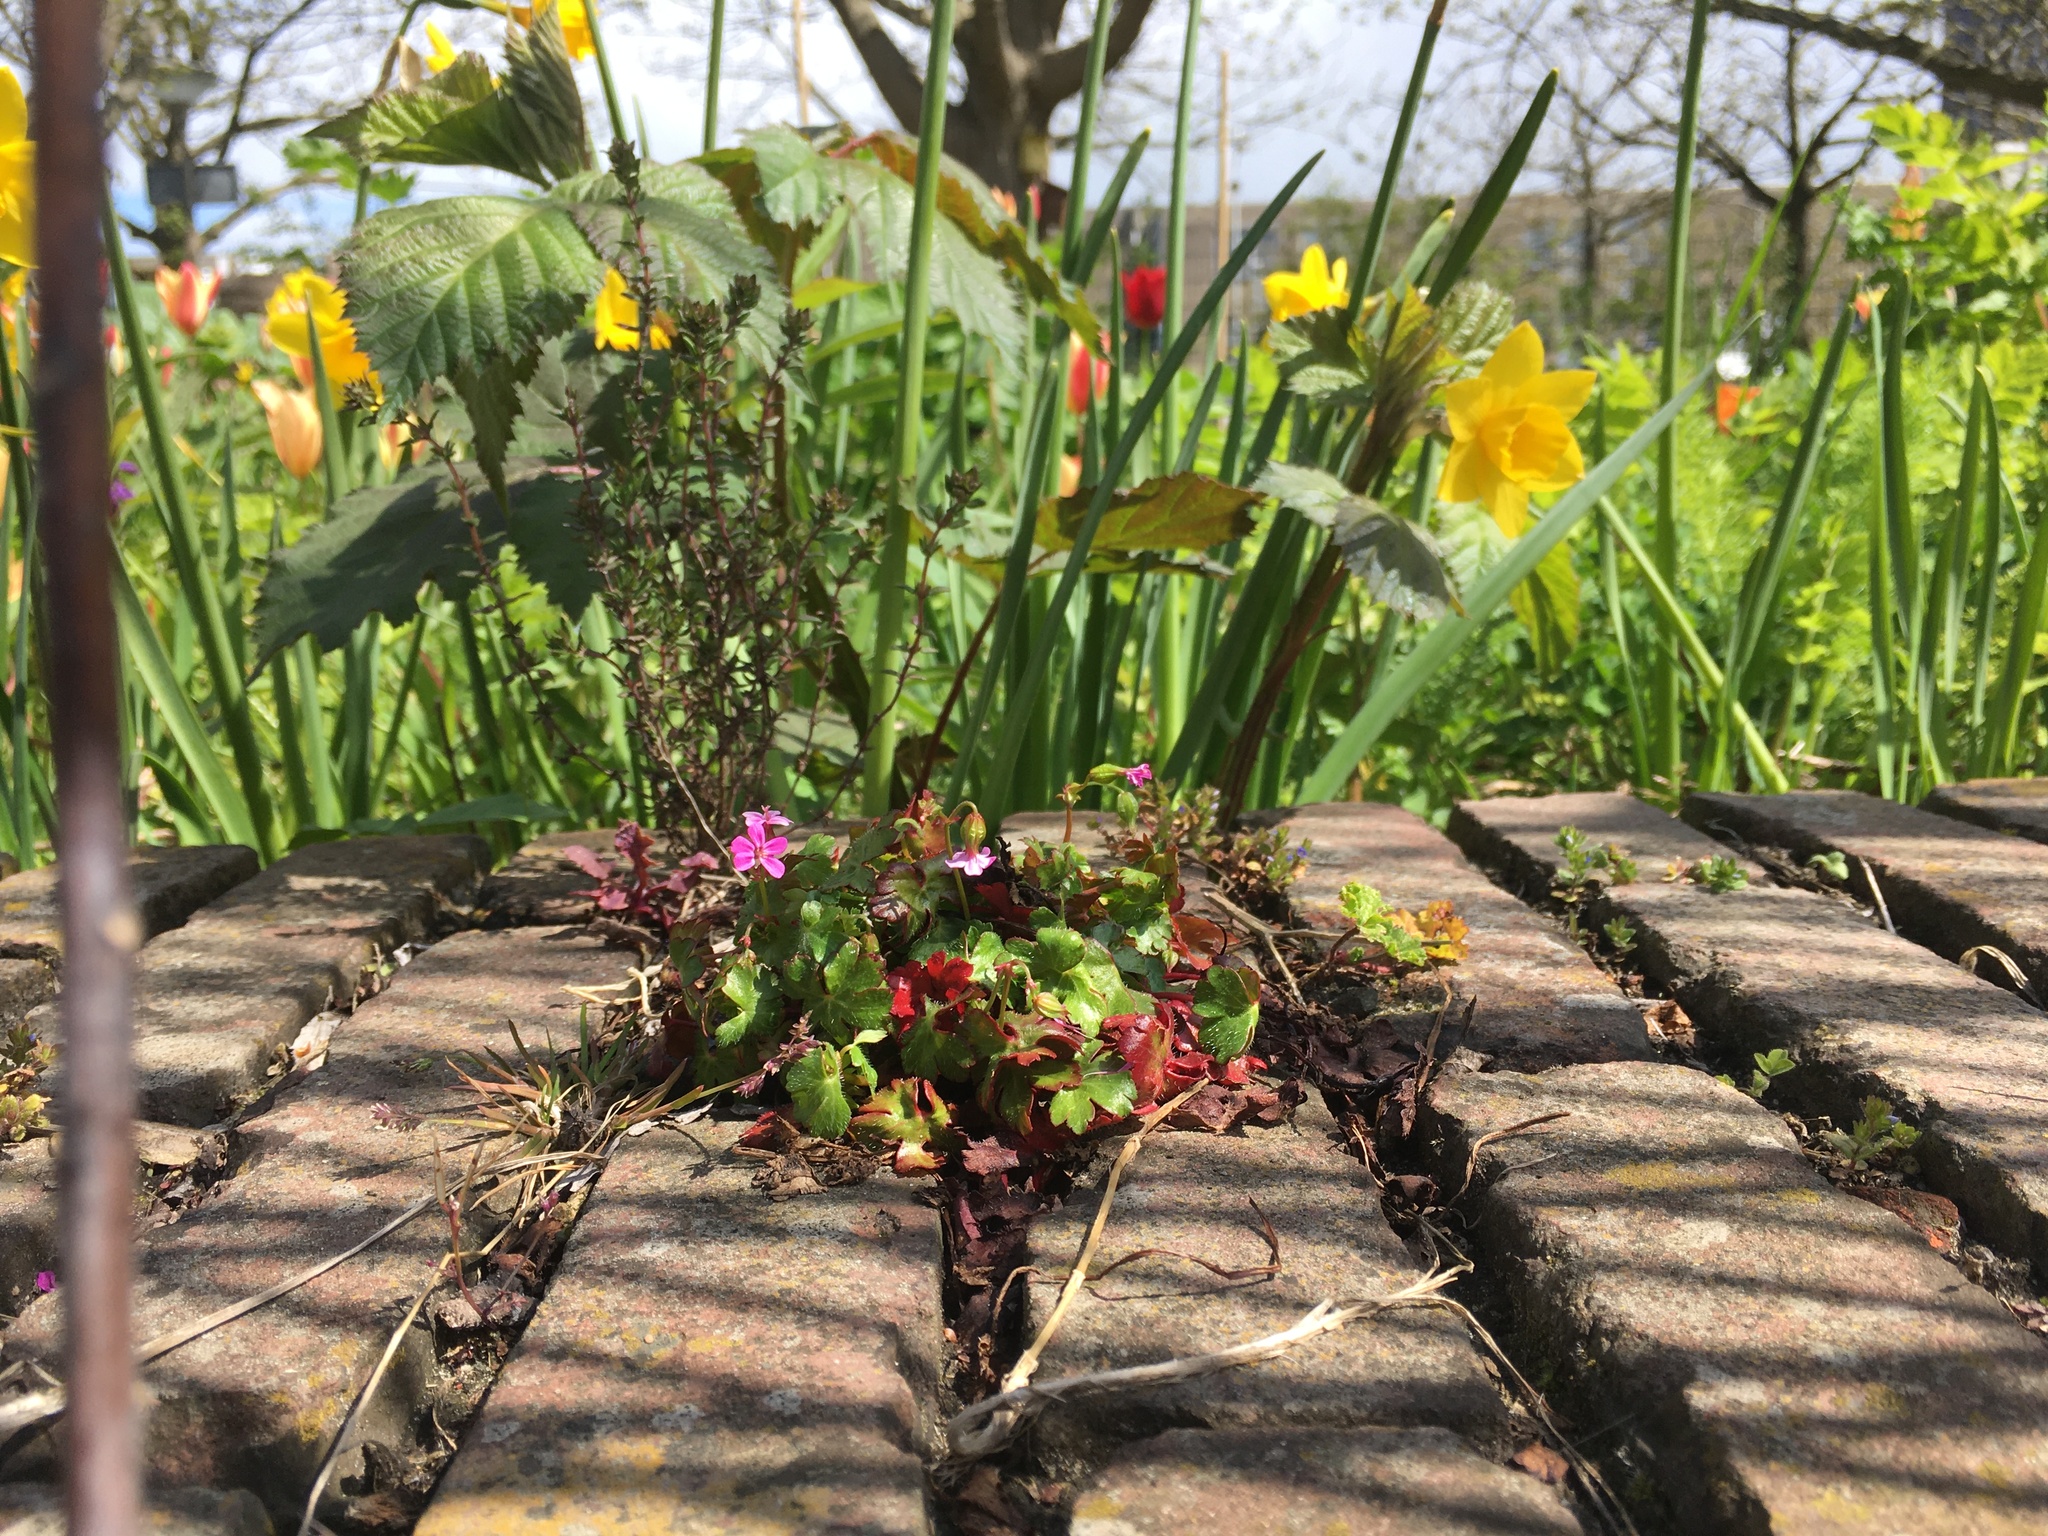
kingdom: Plantae
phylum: Tracheophyta
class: Magnoliopsida
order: Geraniales
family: Geraniaceae
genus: Geranium
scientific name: Geranium lucidum
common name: Shining crane's-bill
